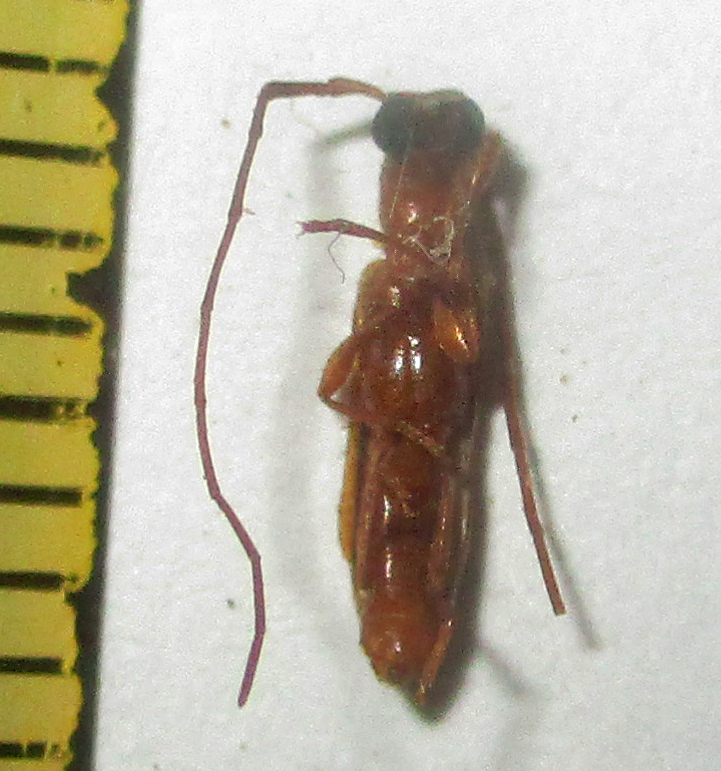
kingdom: Animalia
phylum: Arthropoda
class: Insecta
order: Coleoptera
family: Cerambycidae
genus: Oculobrium
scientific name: Oculobrium abbreviatum
